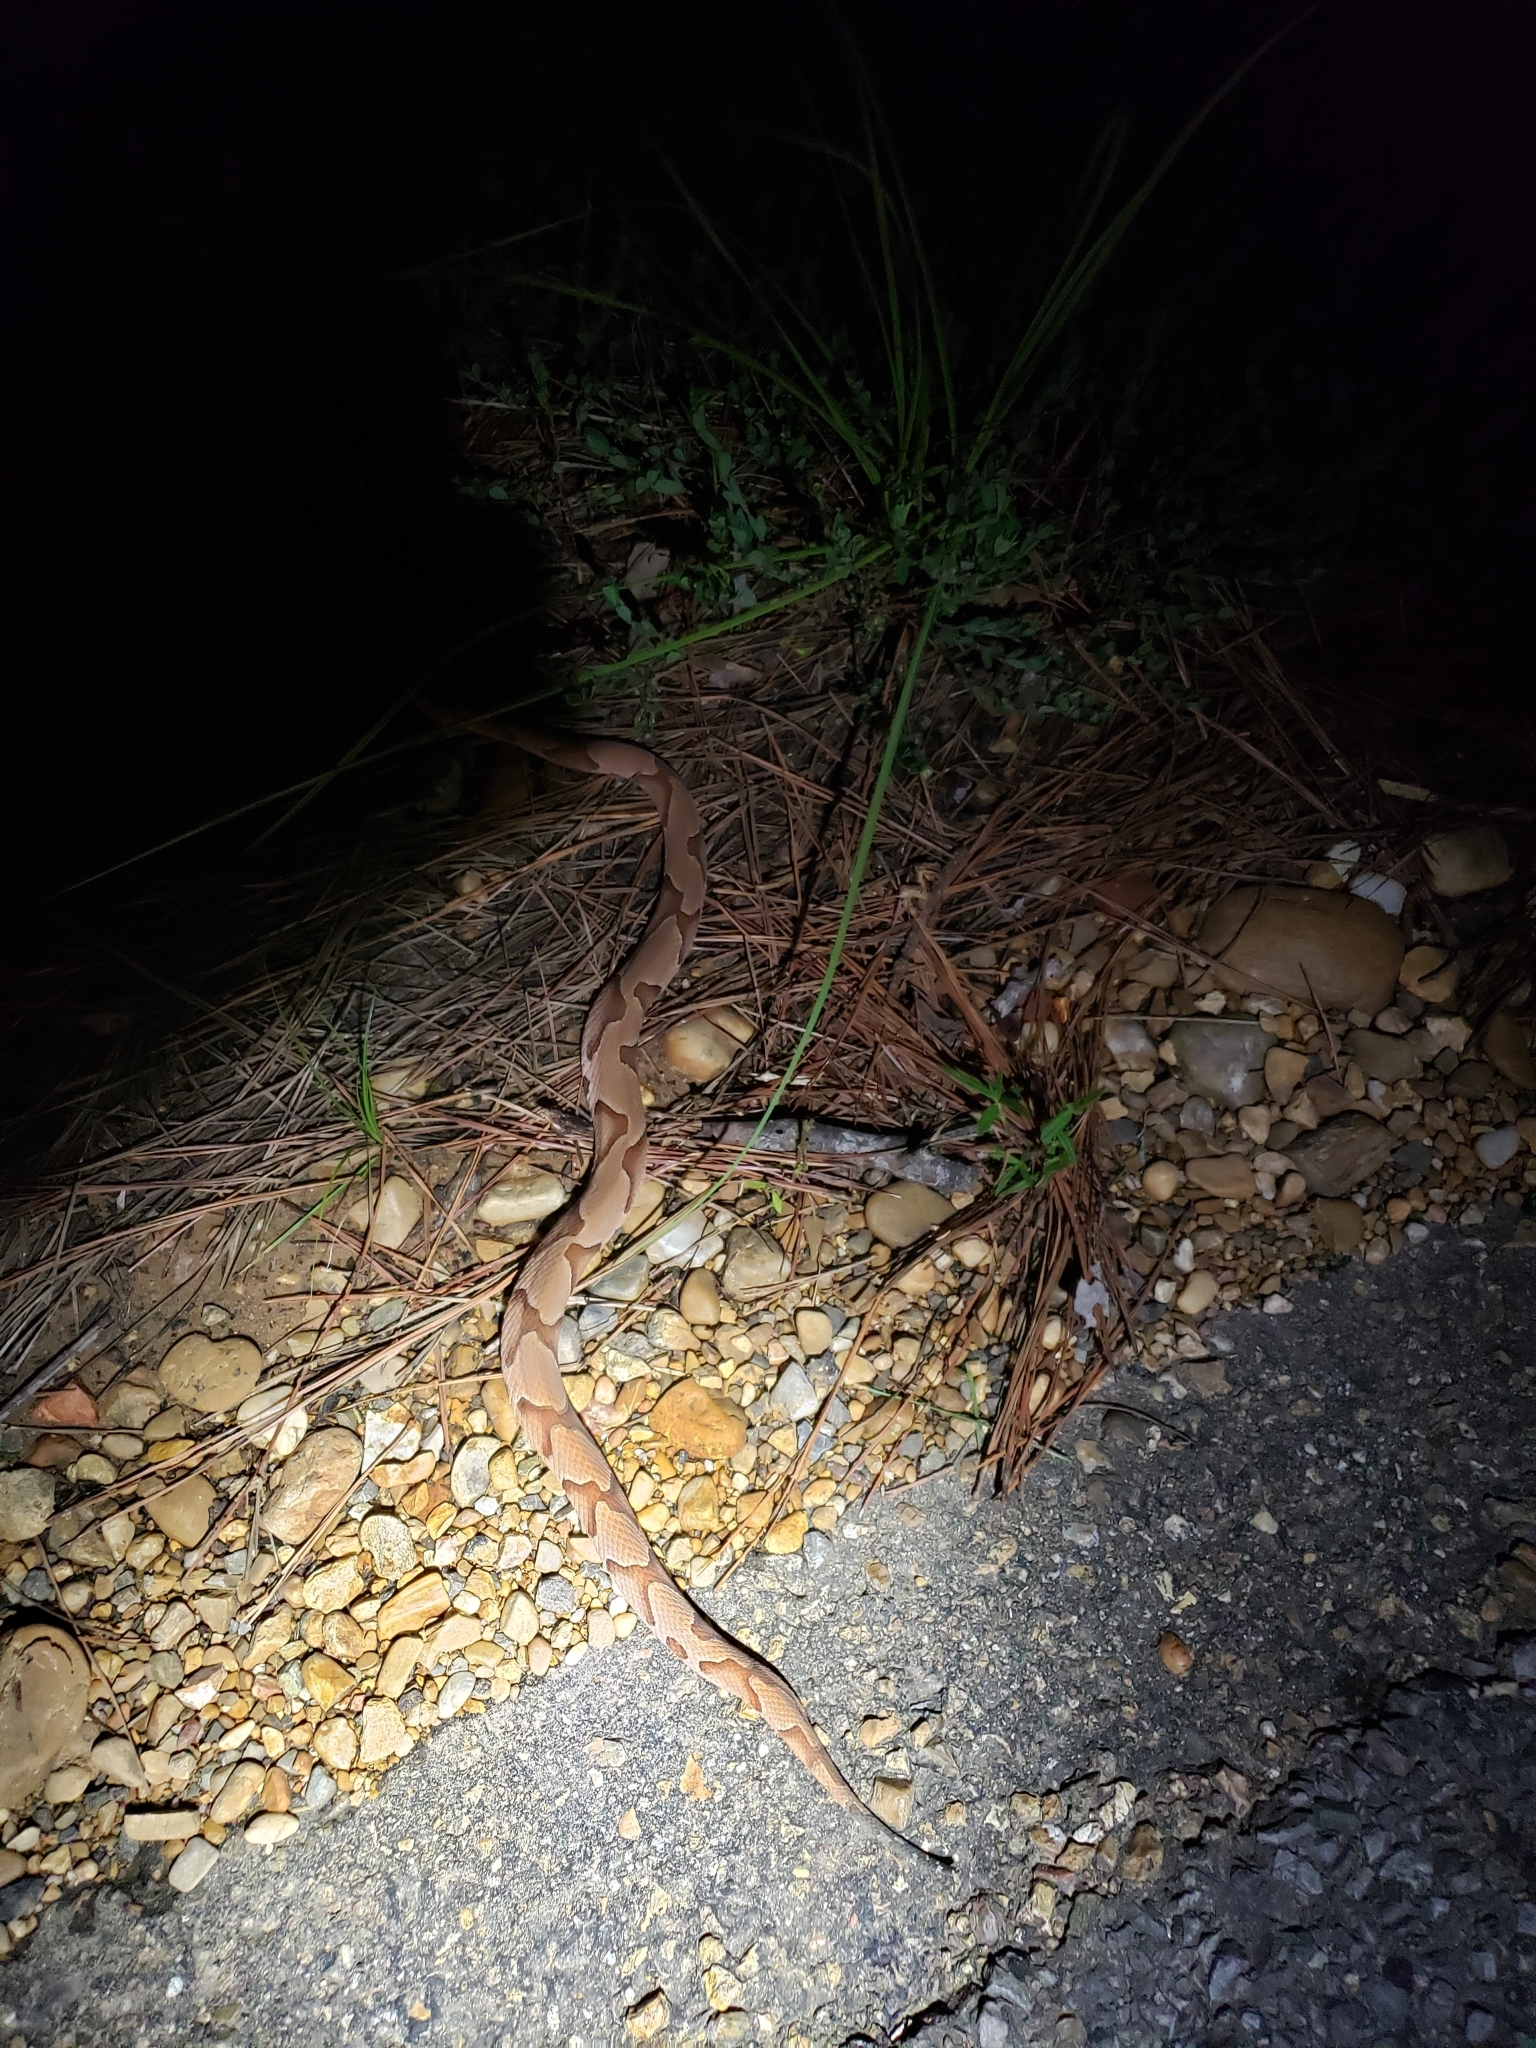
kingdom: Animalia
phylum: Chordata
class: Squamata
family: Viperidae
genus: Agkistrodon
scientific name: Agkistrodon contortrix
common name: Northern copperhead
